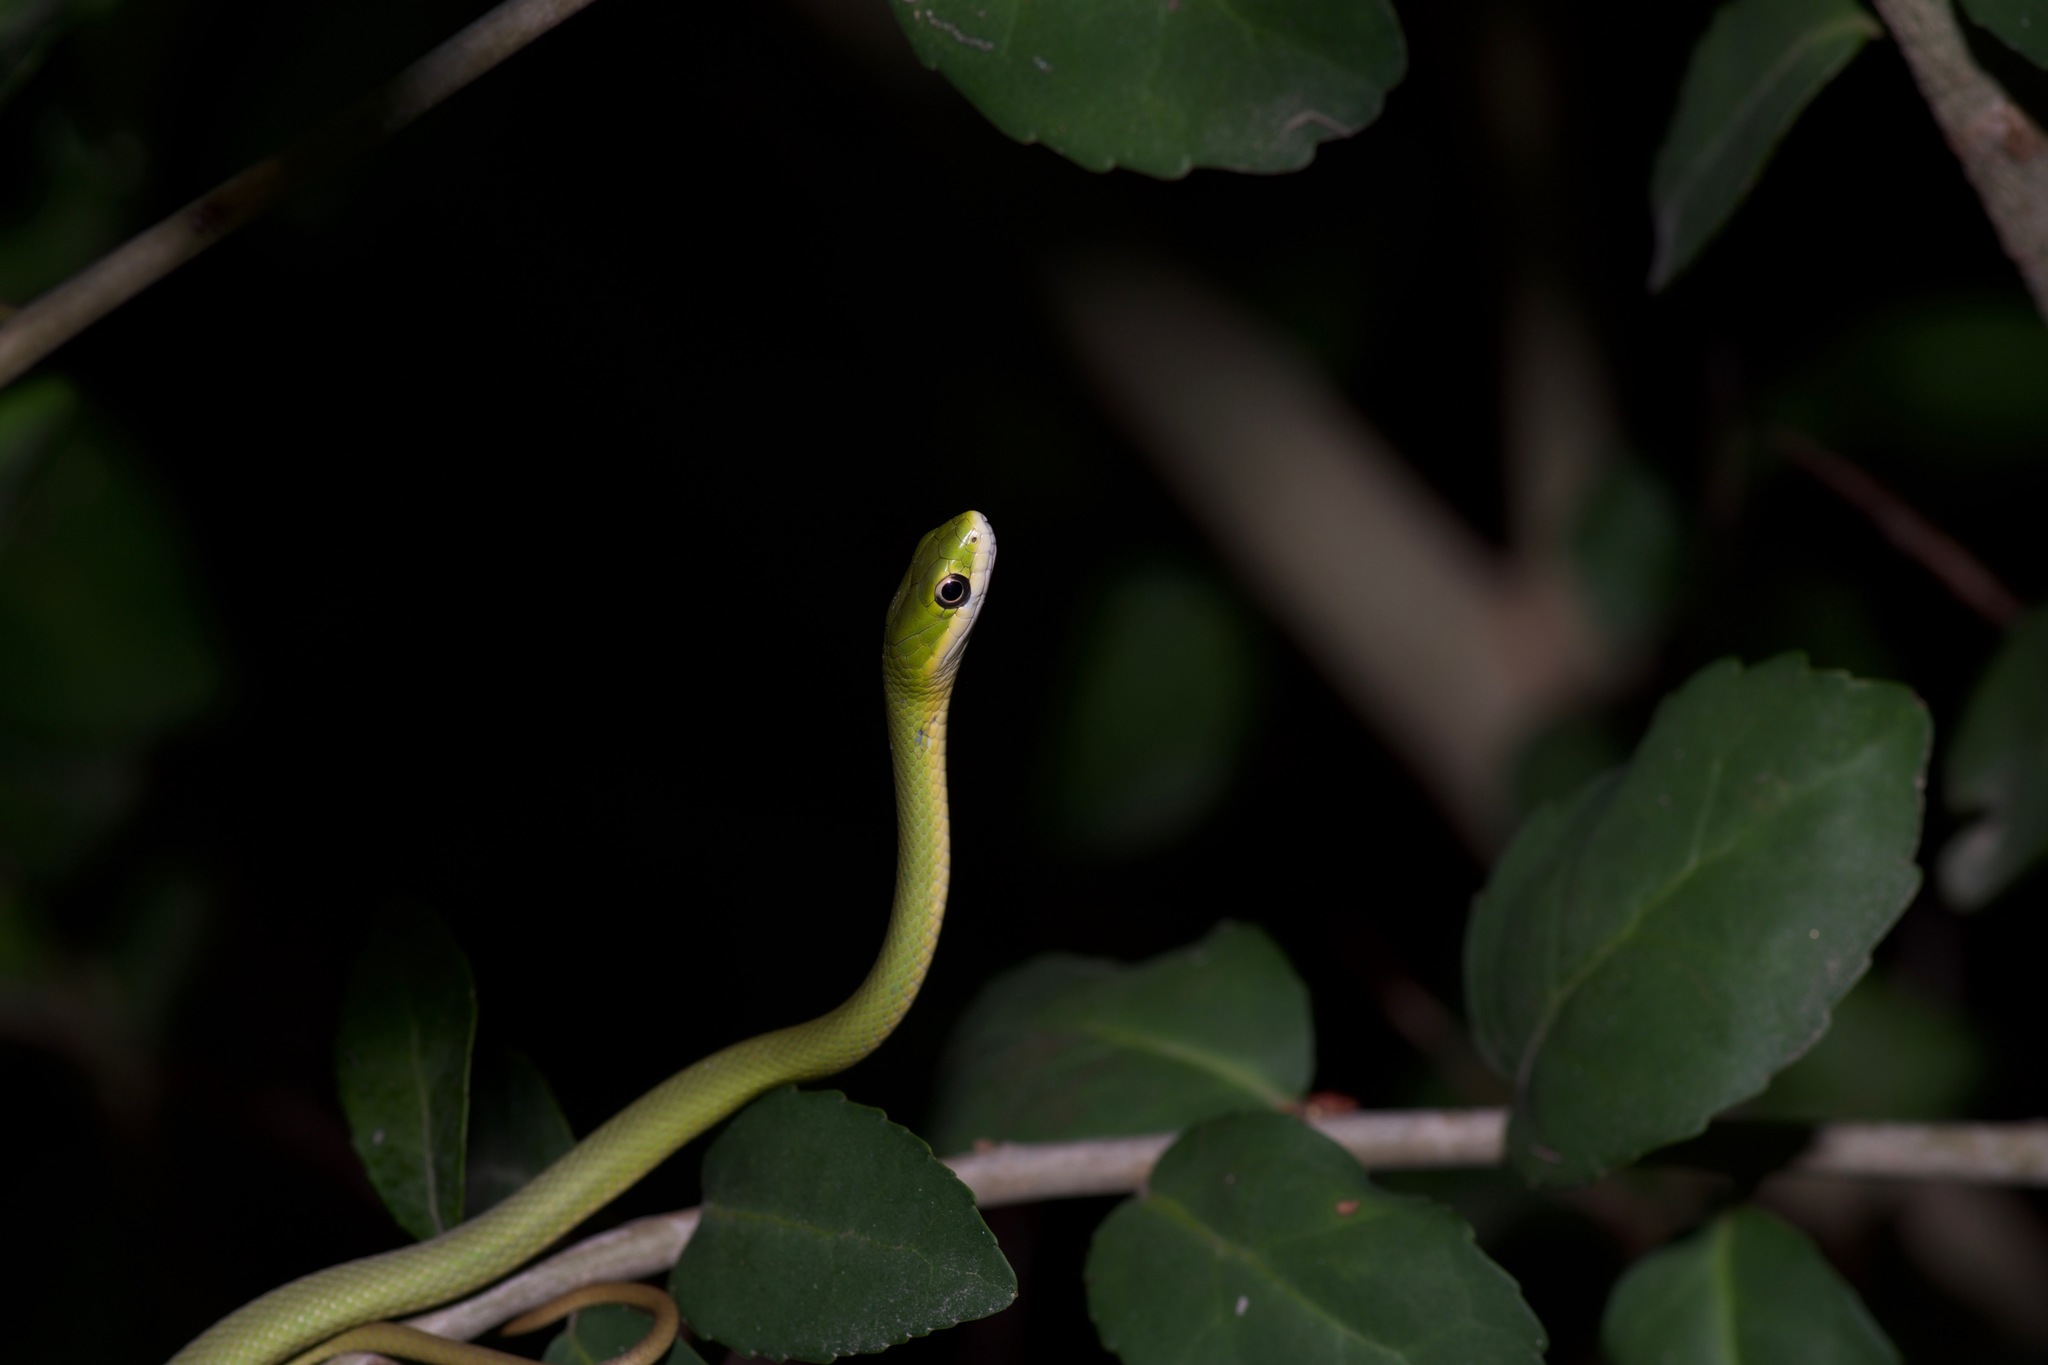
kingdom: Animalia
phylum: Chordata
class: Squamata
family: Colubridae
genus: Opheodrys
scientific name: Opheodrys aestivus
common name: Rough greensnake
